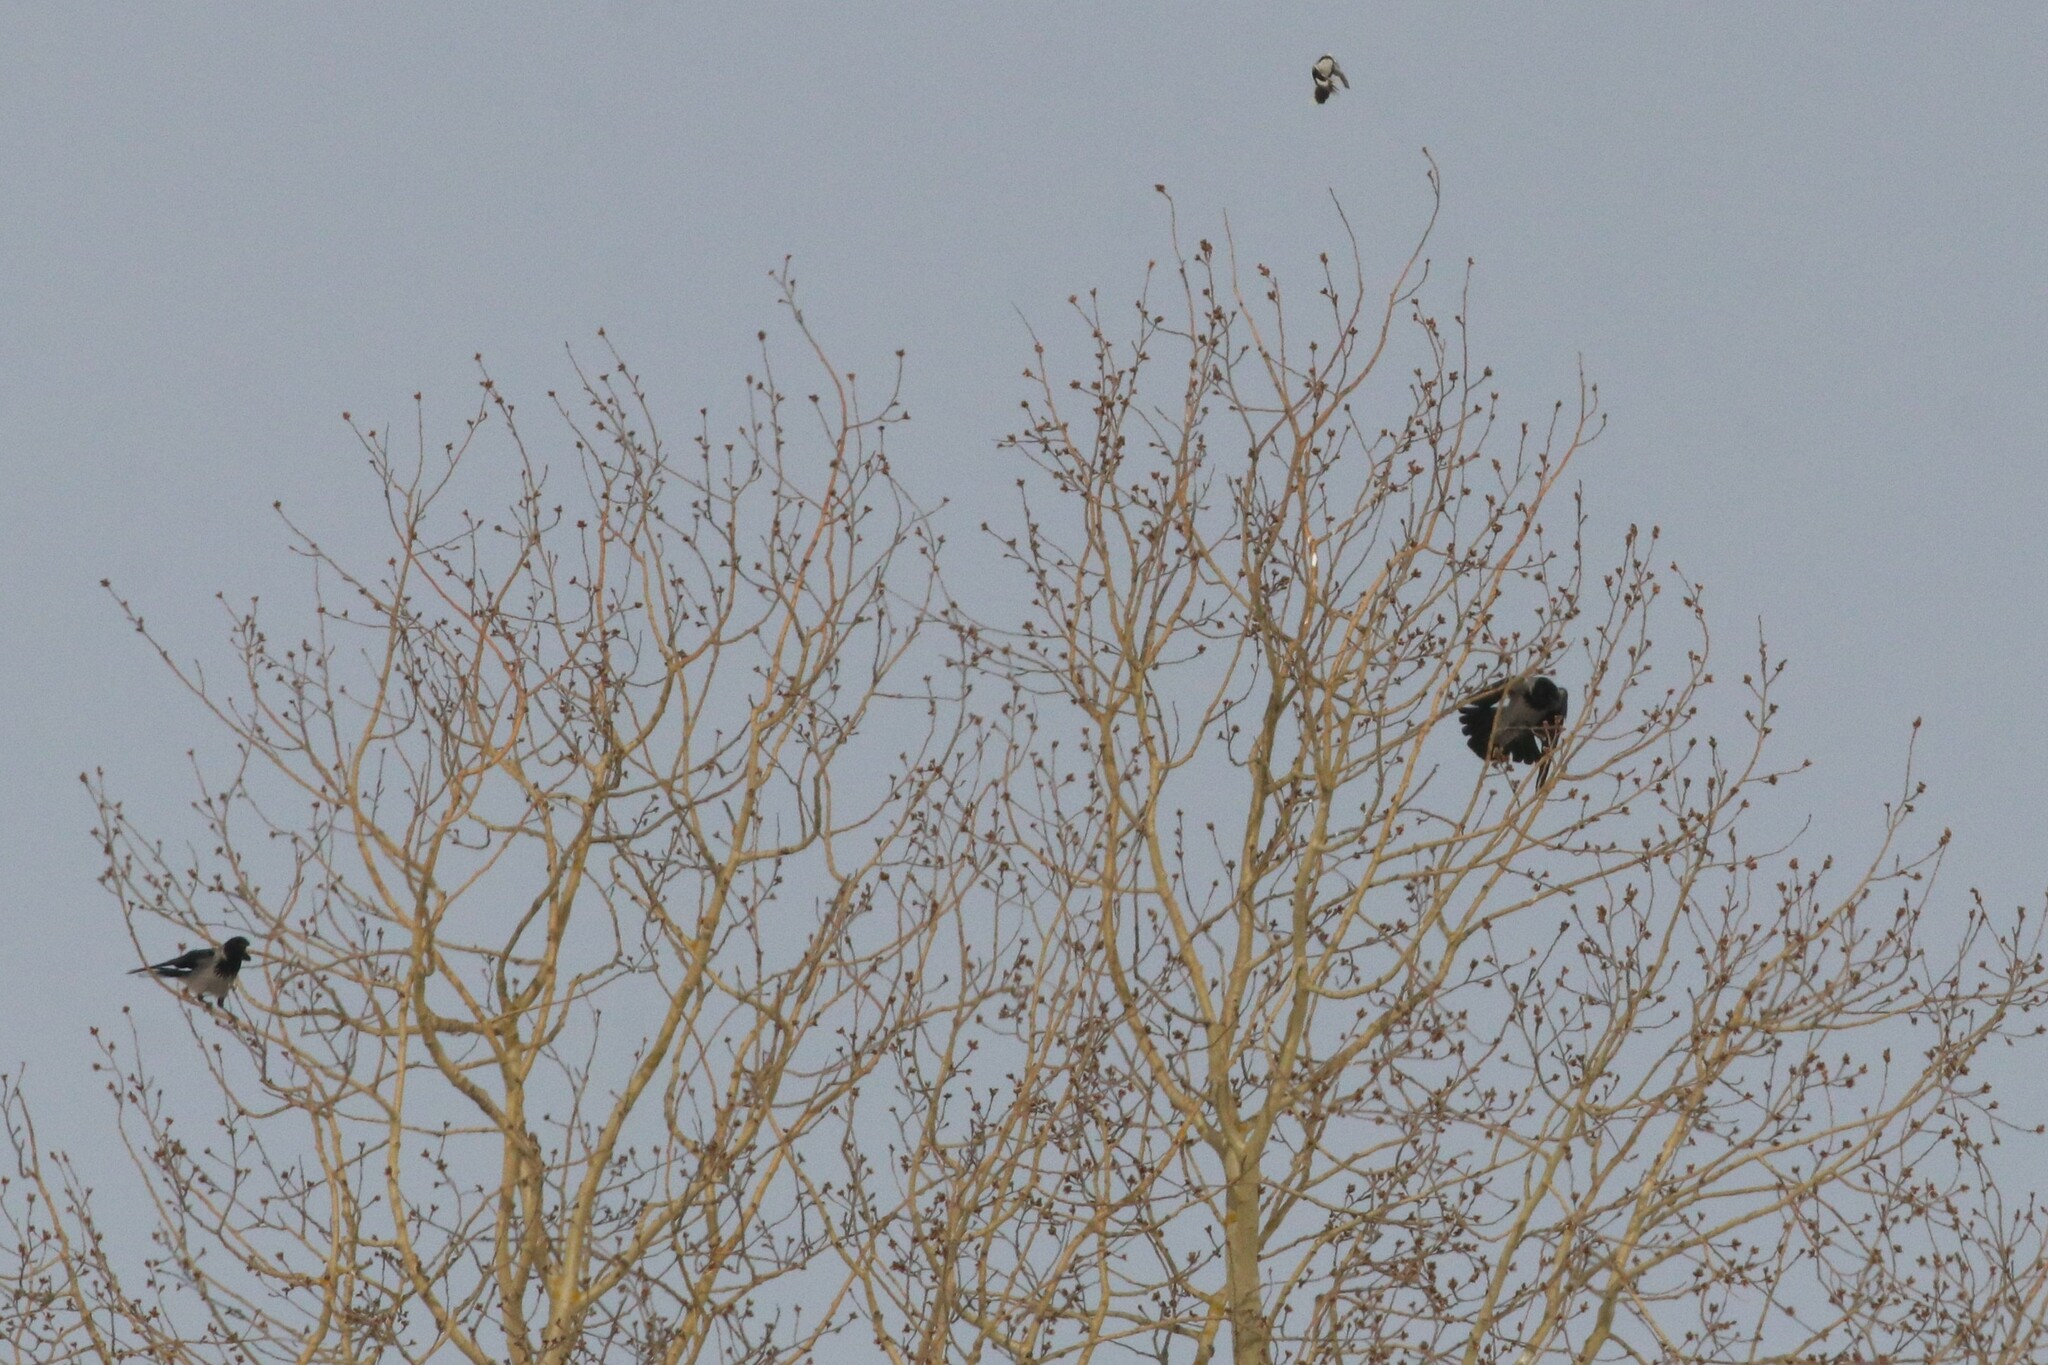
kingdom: Animalia
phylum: Chordata
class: Aves
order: Passeriformes
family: Corvidae
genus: Corvus
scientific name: Corvus cornix
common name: Hooded crow
